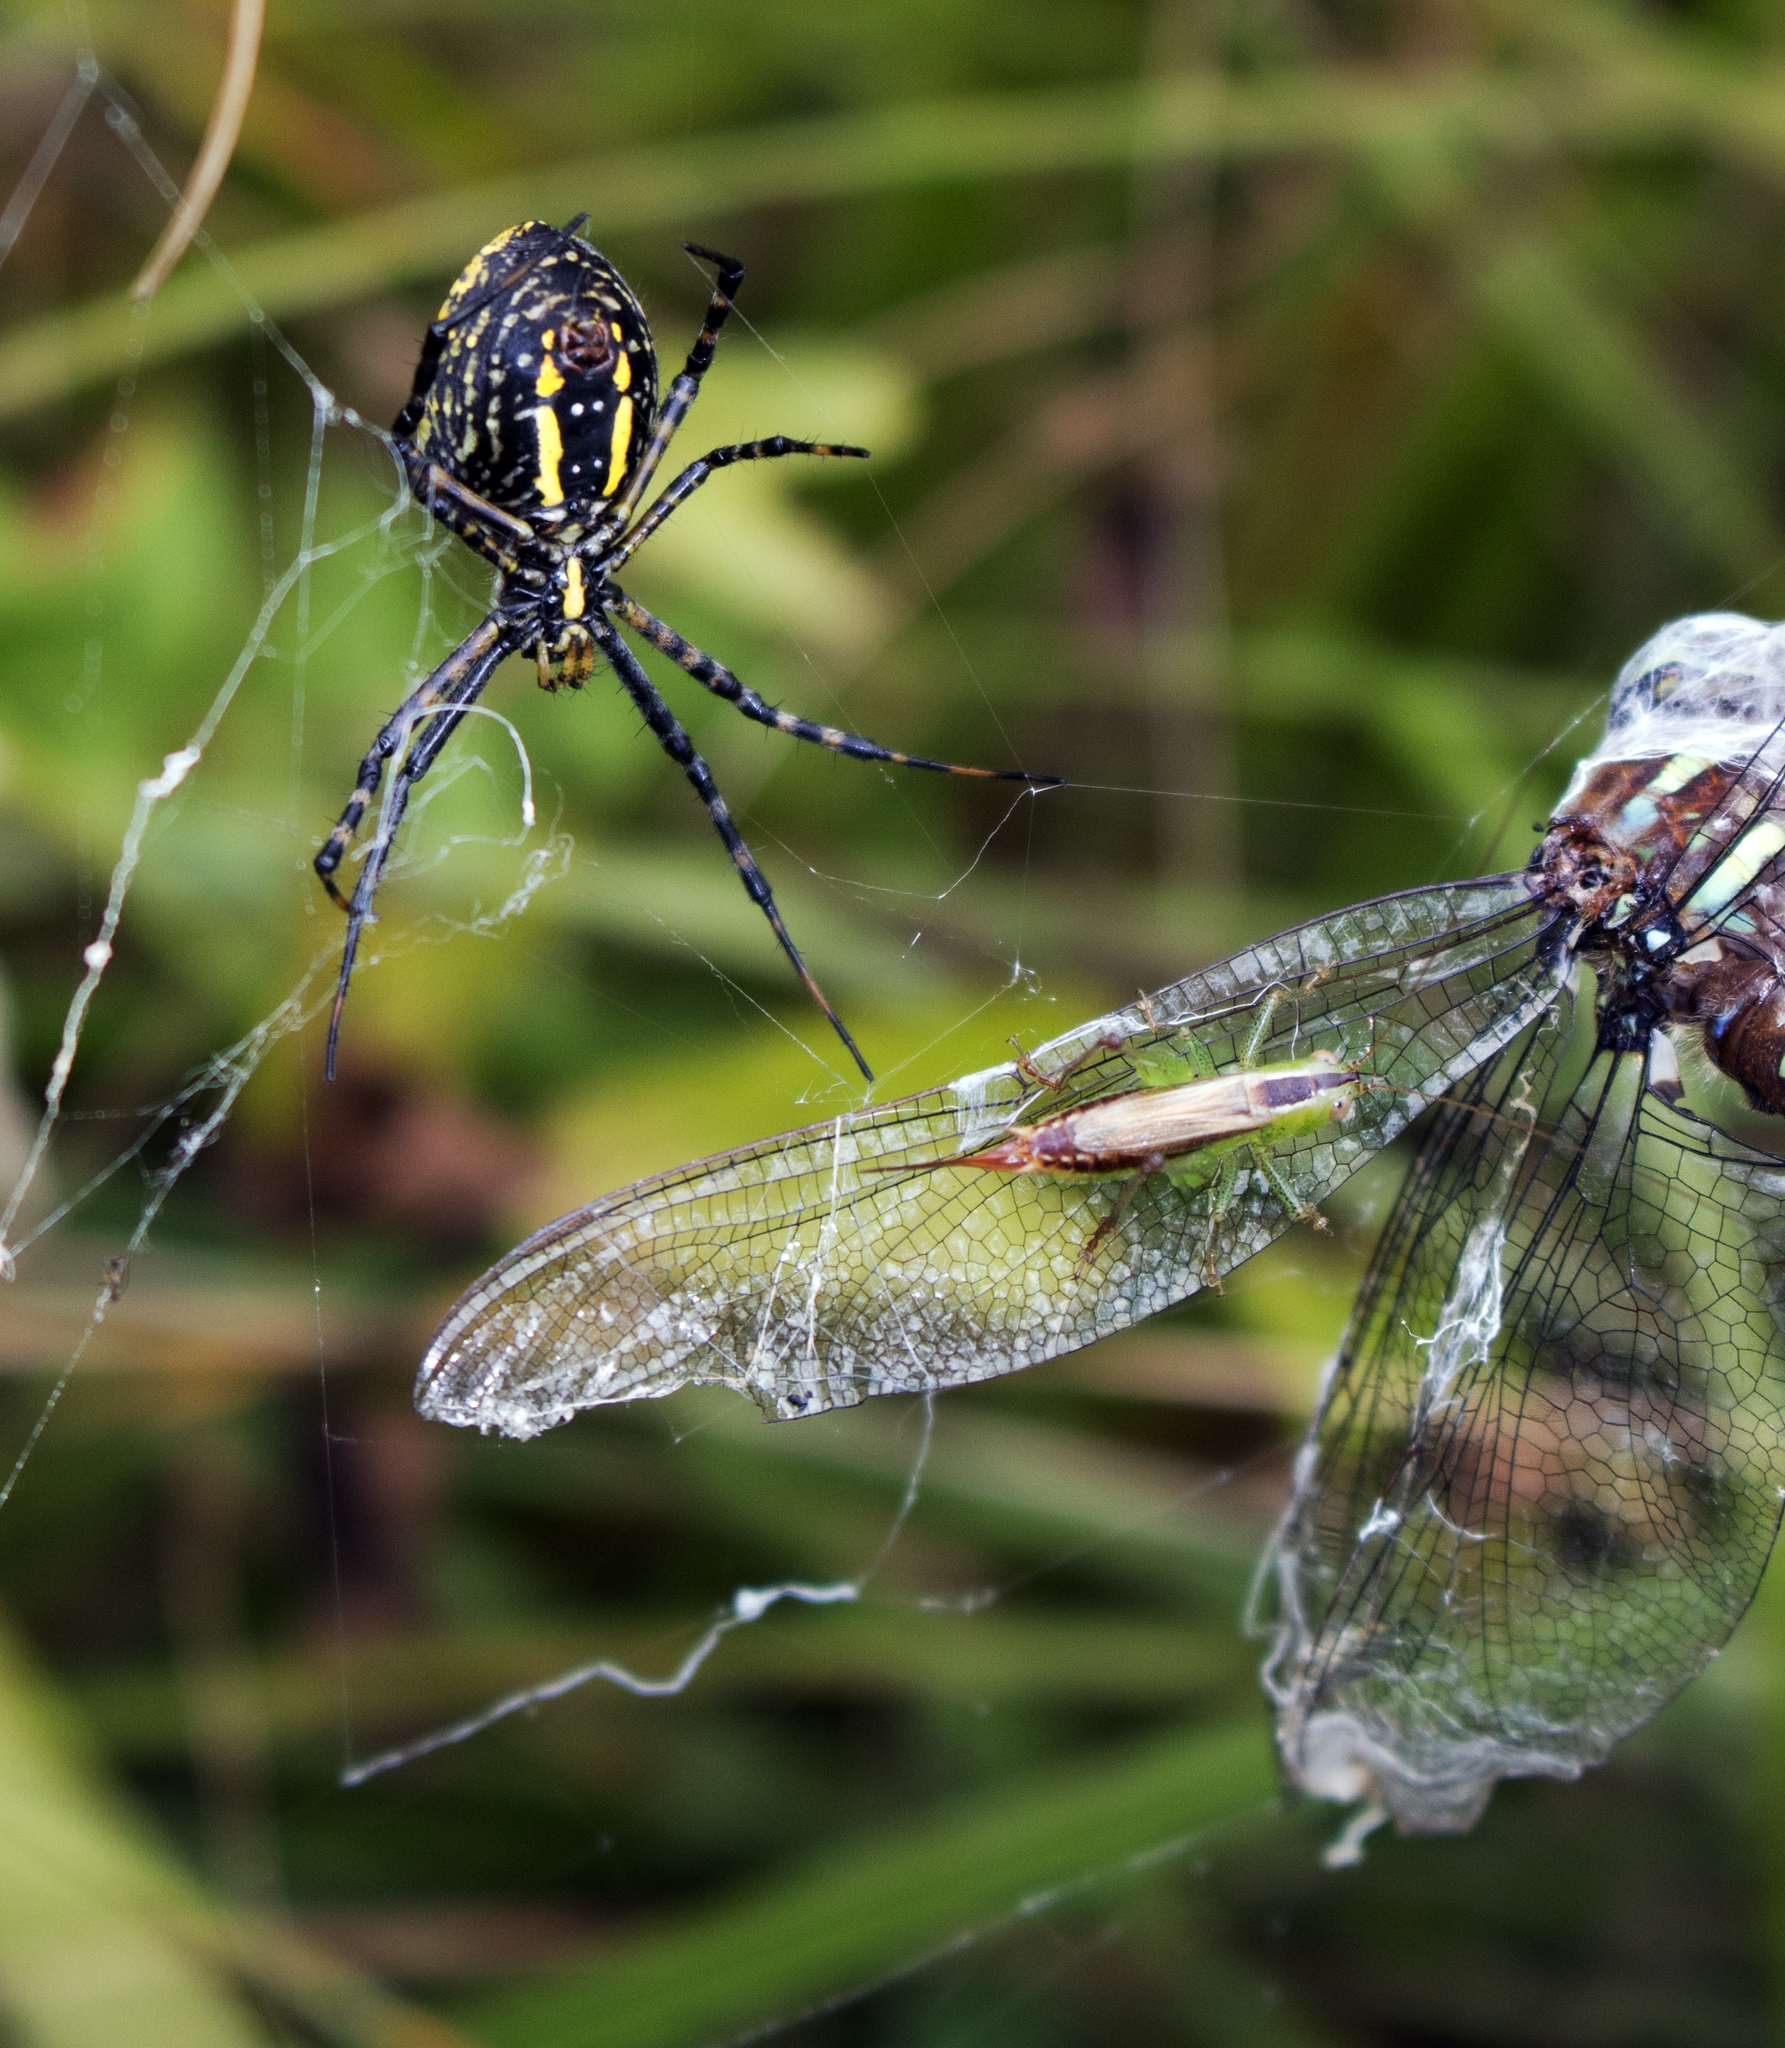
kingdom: Animalia
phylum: Arthropoda
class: Arachnida
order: Araneae
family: Araneidae
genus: Argiope
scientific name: Argiope trifasciata
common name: Banded garden spider
